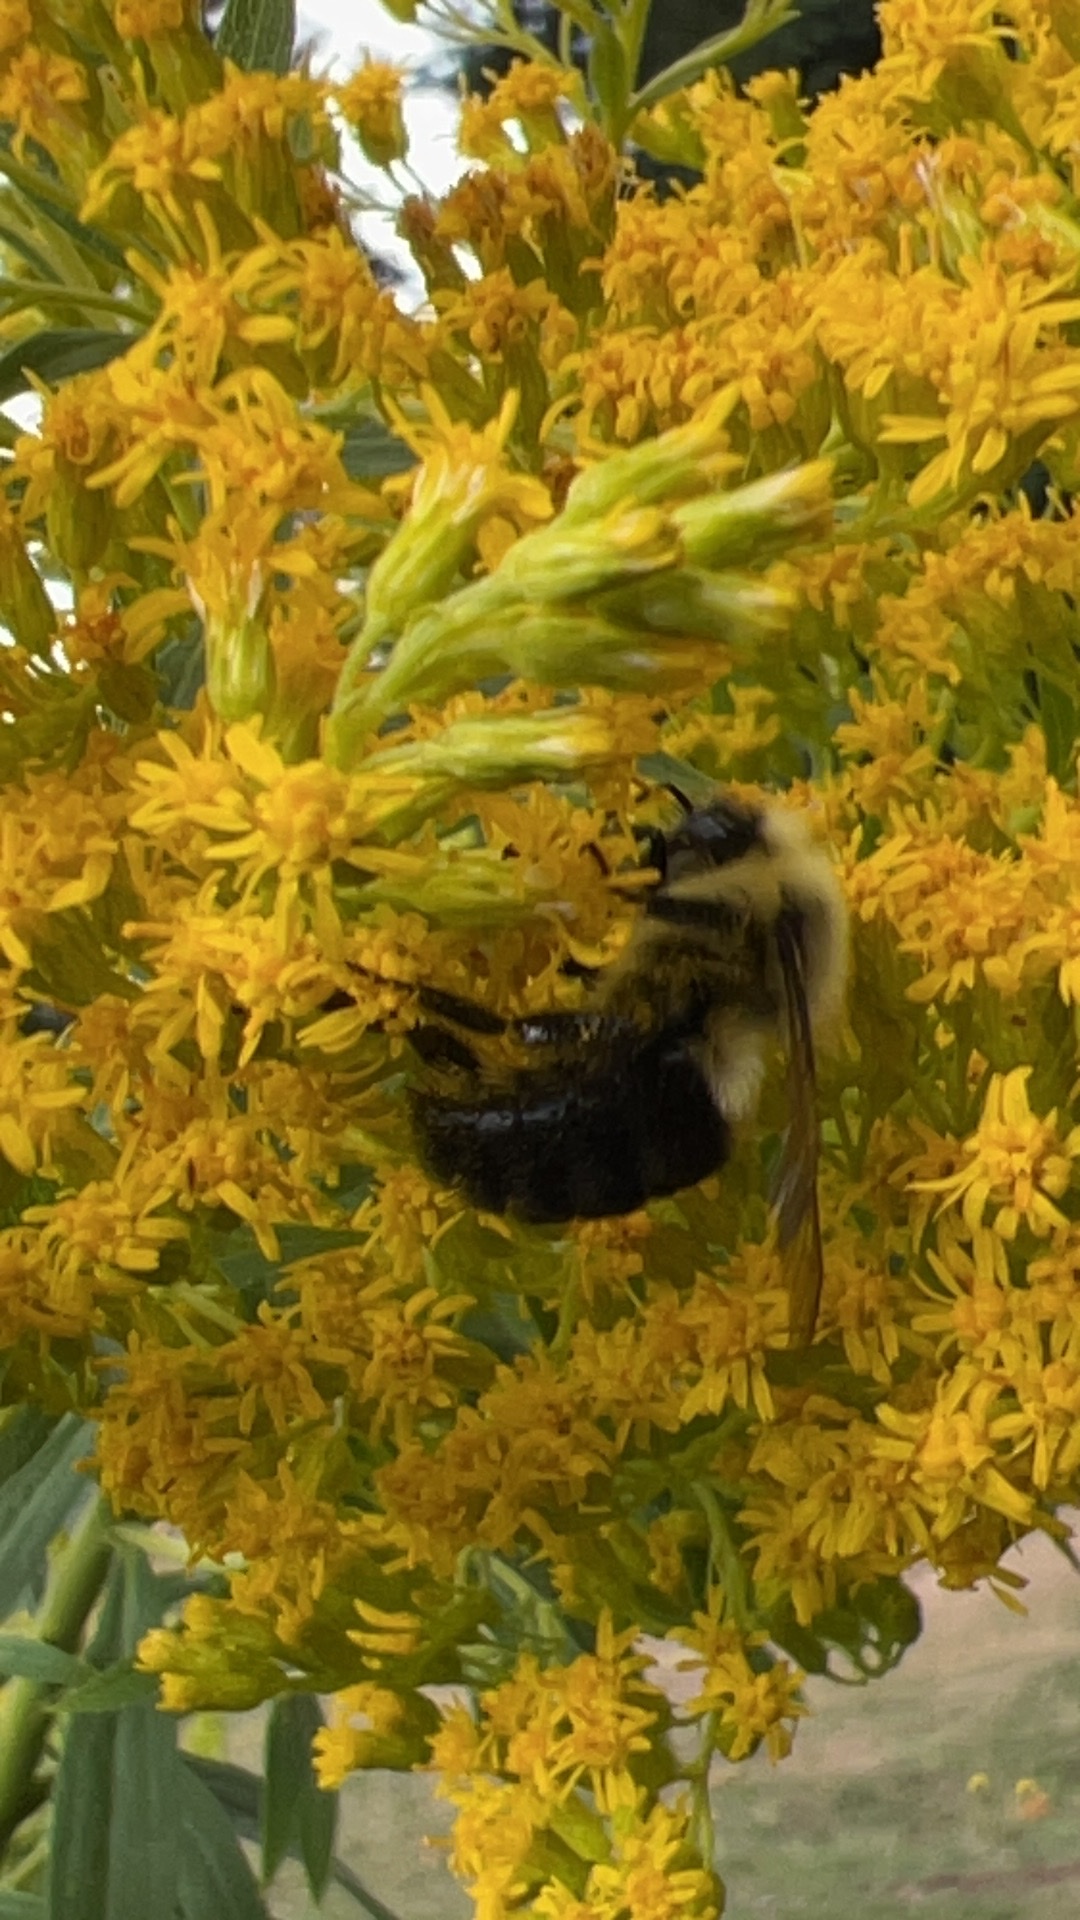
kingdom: Animalia
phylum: Arthropoda
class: Insecta
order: Hymenoptera
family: Apidae
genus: Bombus
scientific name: Bombus impatiens
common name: Common eastern bumble bee
